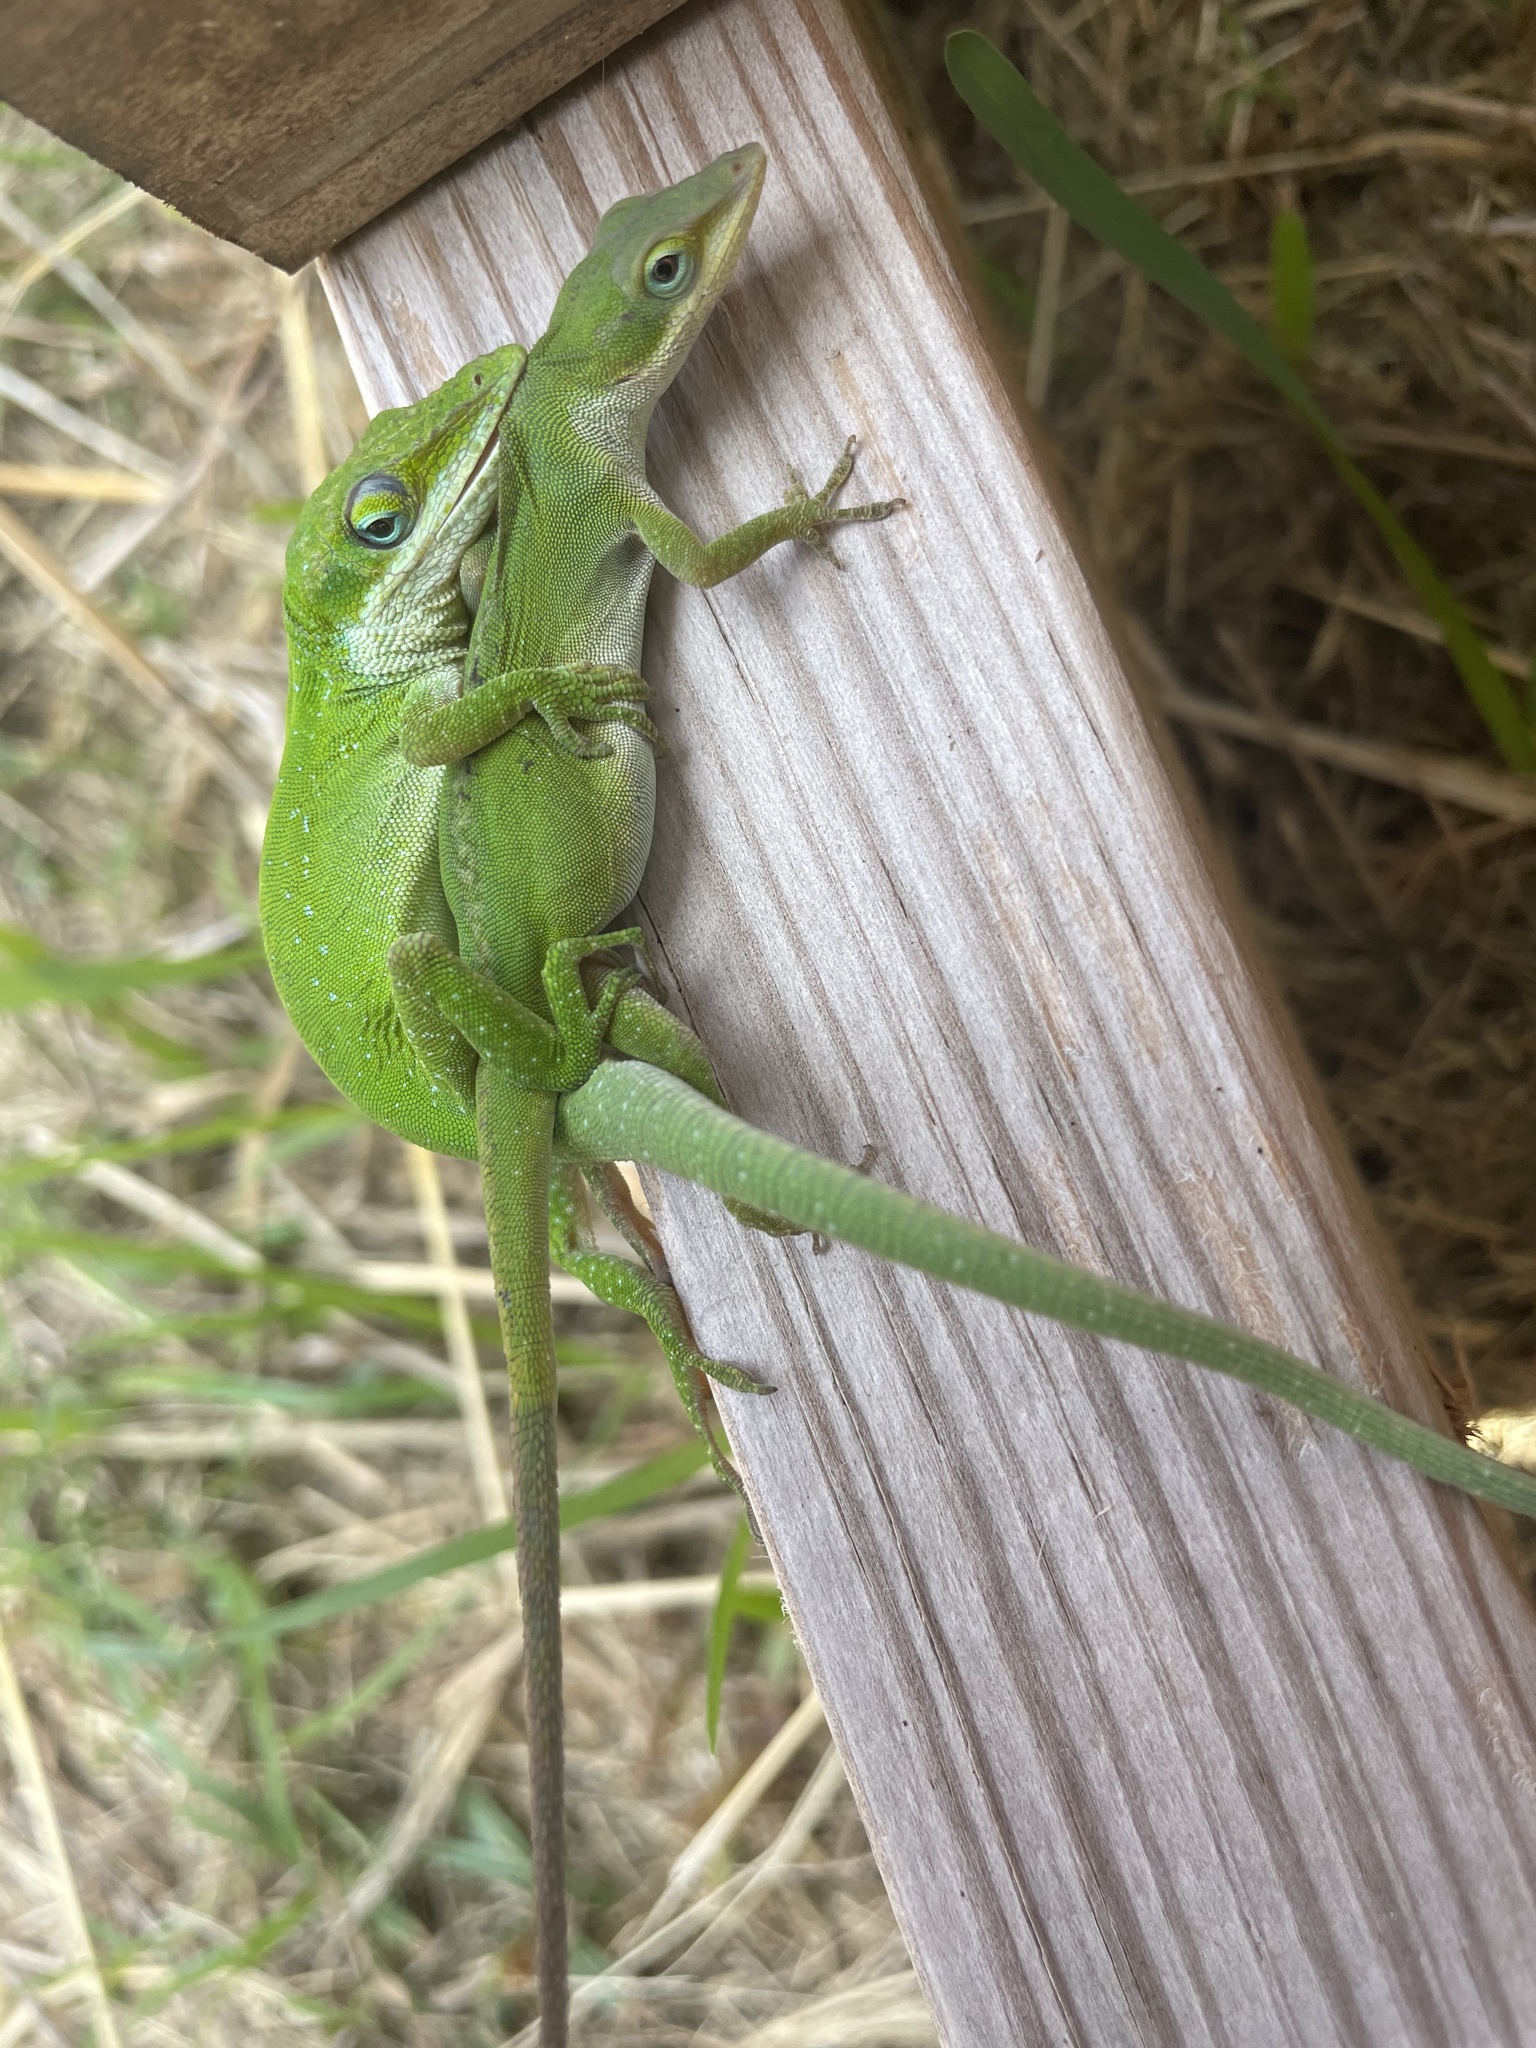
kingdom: Animalia
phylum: Chordata
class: Squamata
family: Dactyloidae
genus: Anolis
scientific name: Anolis carolinensis
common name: Green anole
